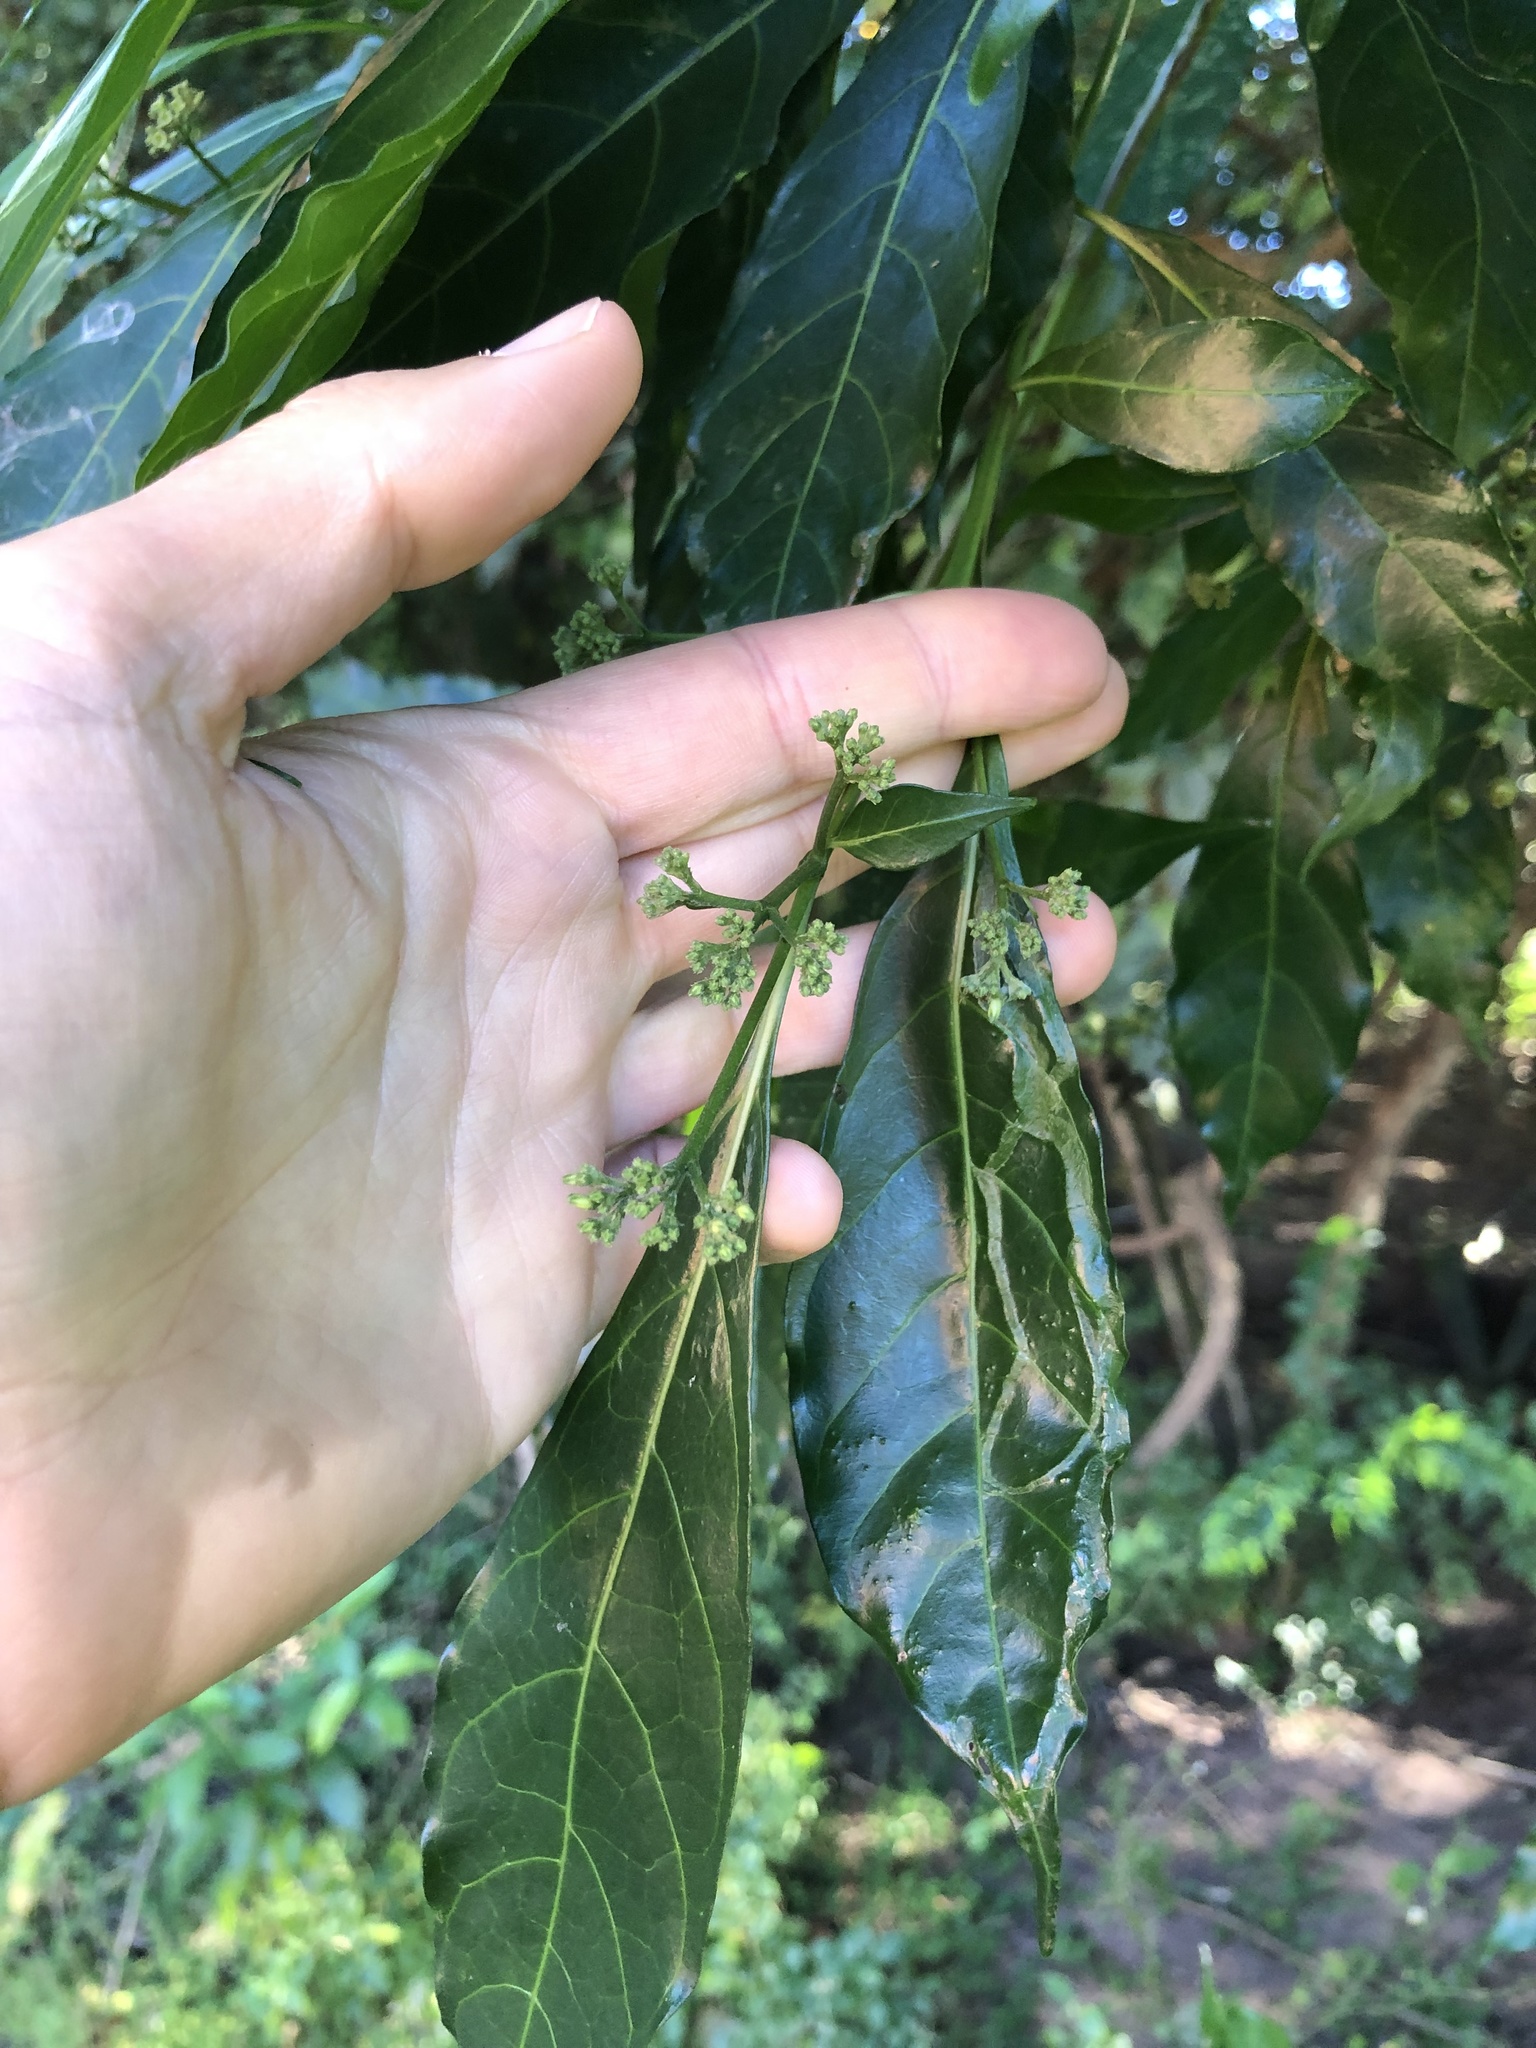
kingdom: Plantae
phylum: Tracheophyta
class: Magnoliopsida
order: Gentianales
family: Rubiaceae
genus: Tarenna
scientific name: Tarenna pavettoides
